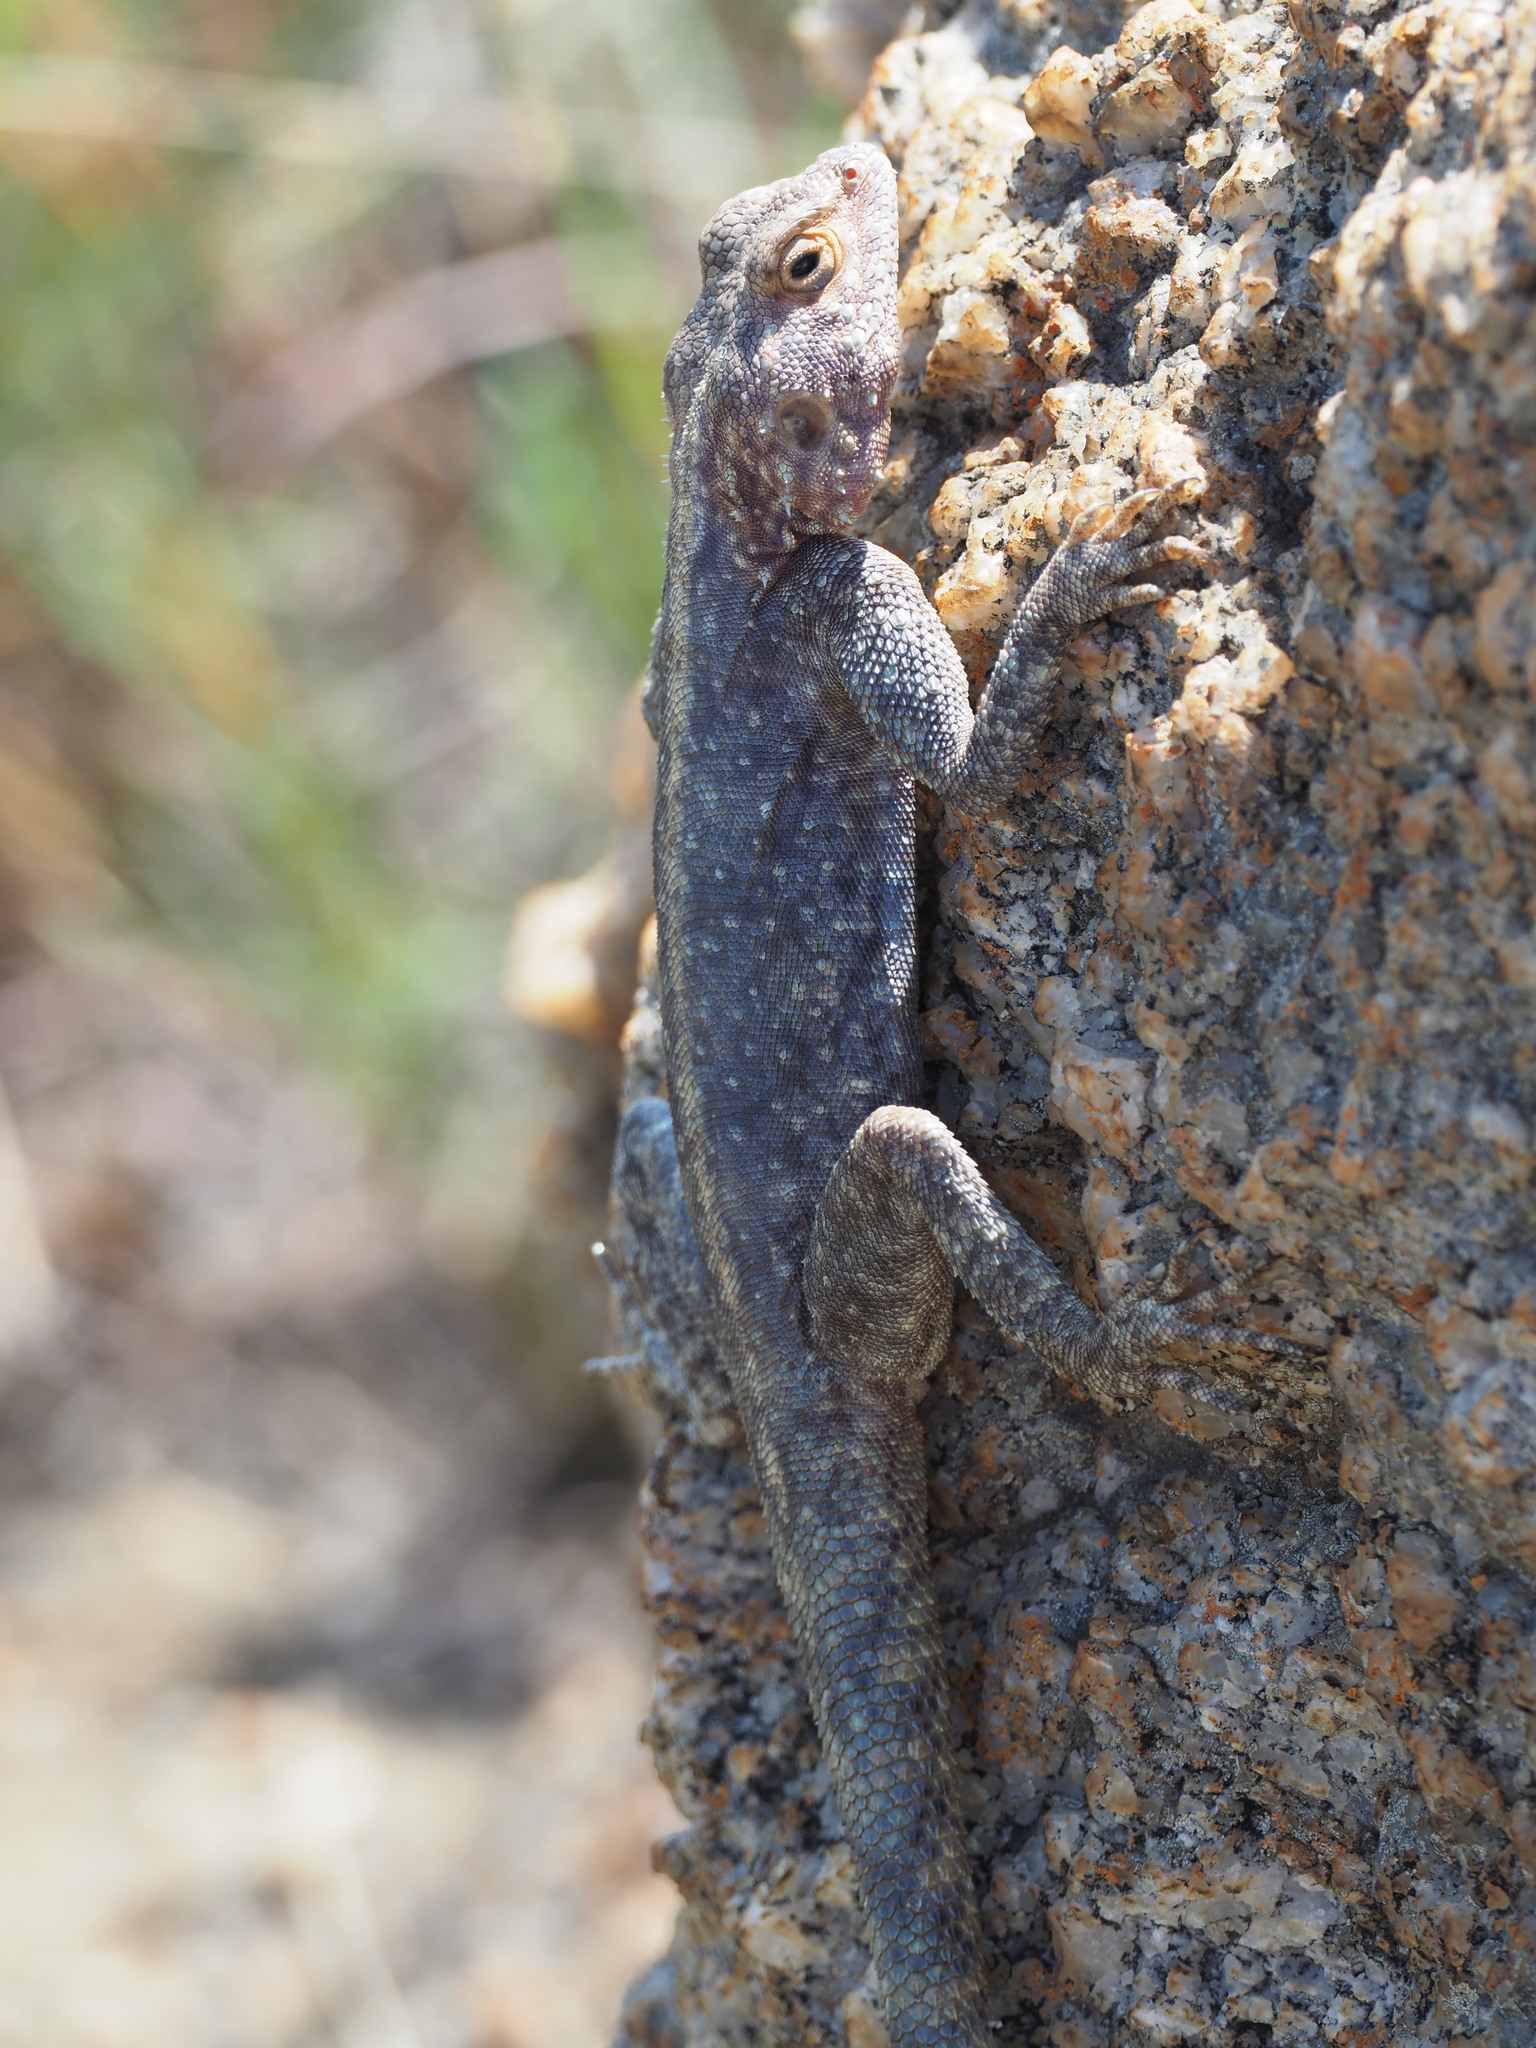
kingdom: Animalia
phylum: Chordata
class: Squamata
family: Agamidae
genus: Agama
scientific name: Agama atra
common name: Southern african rock agama
